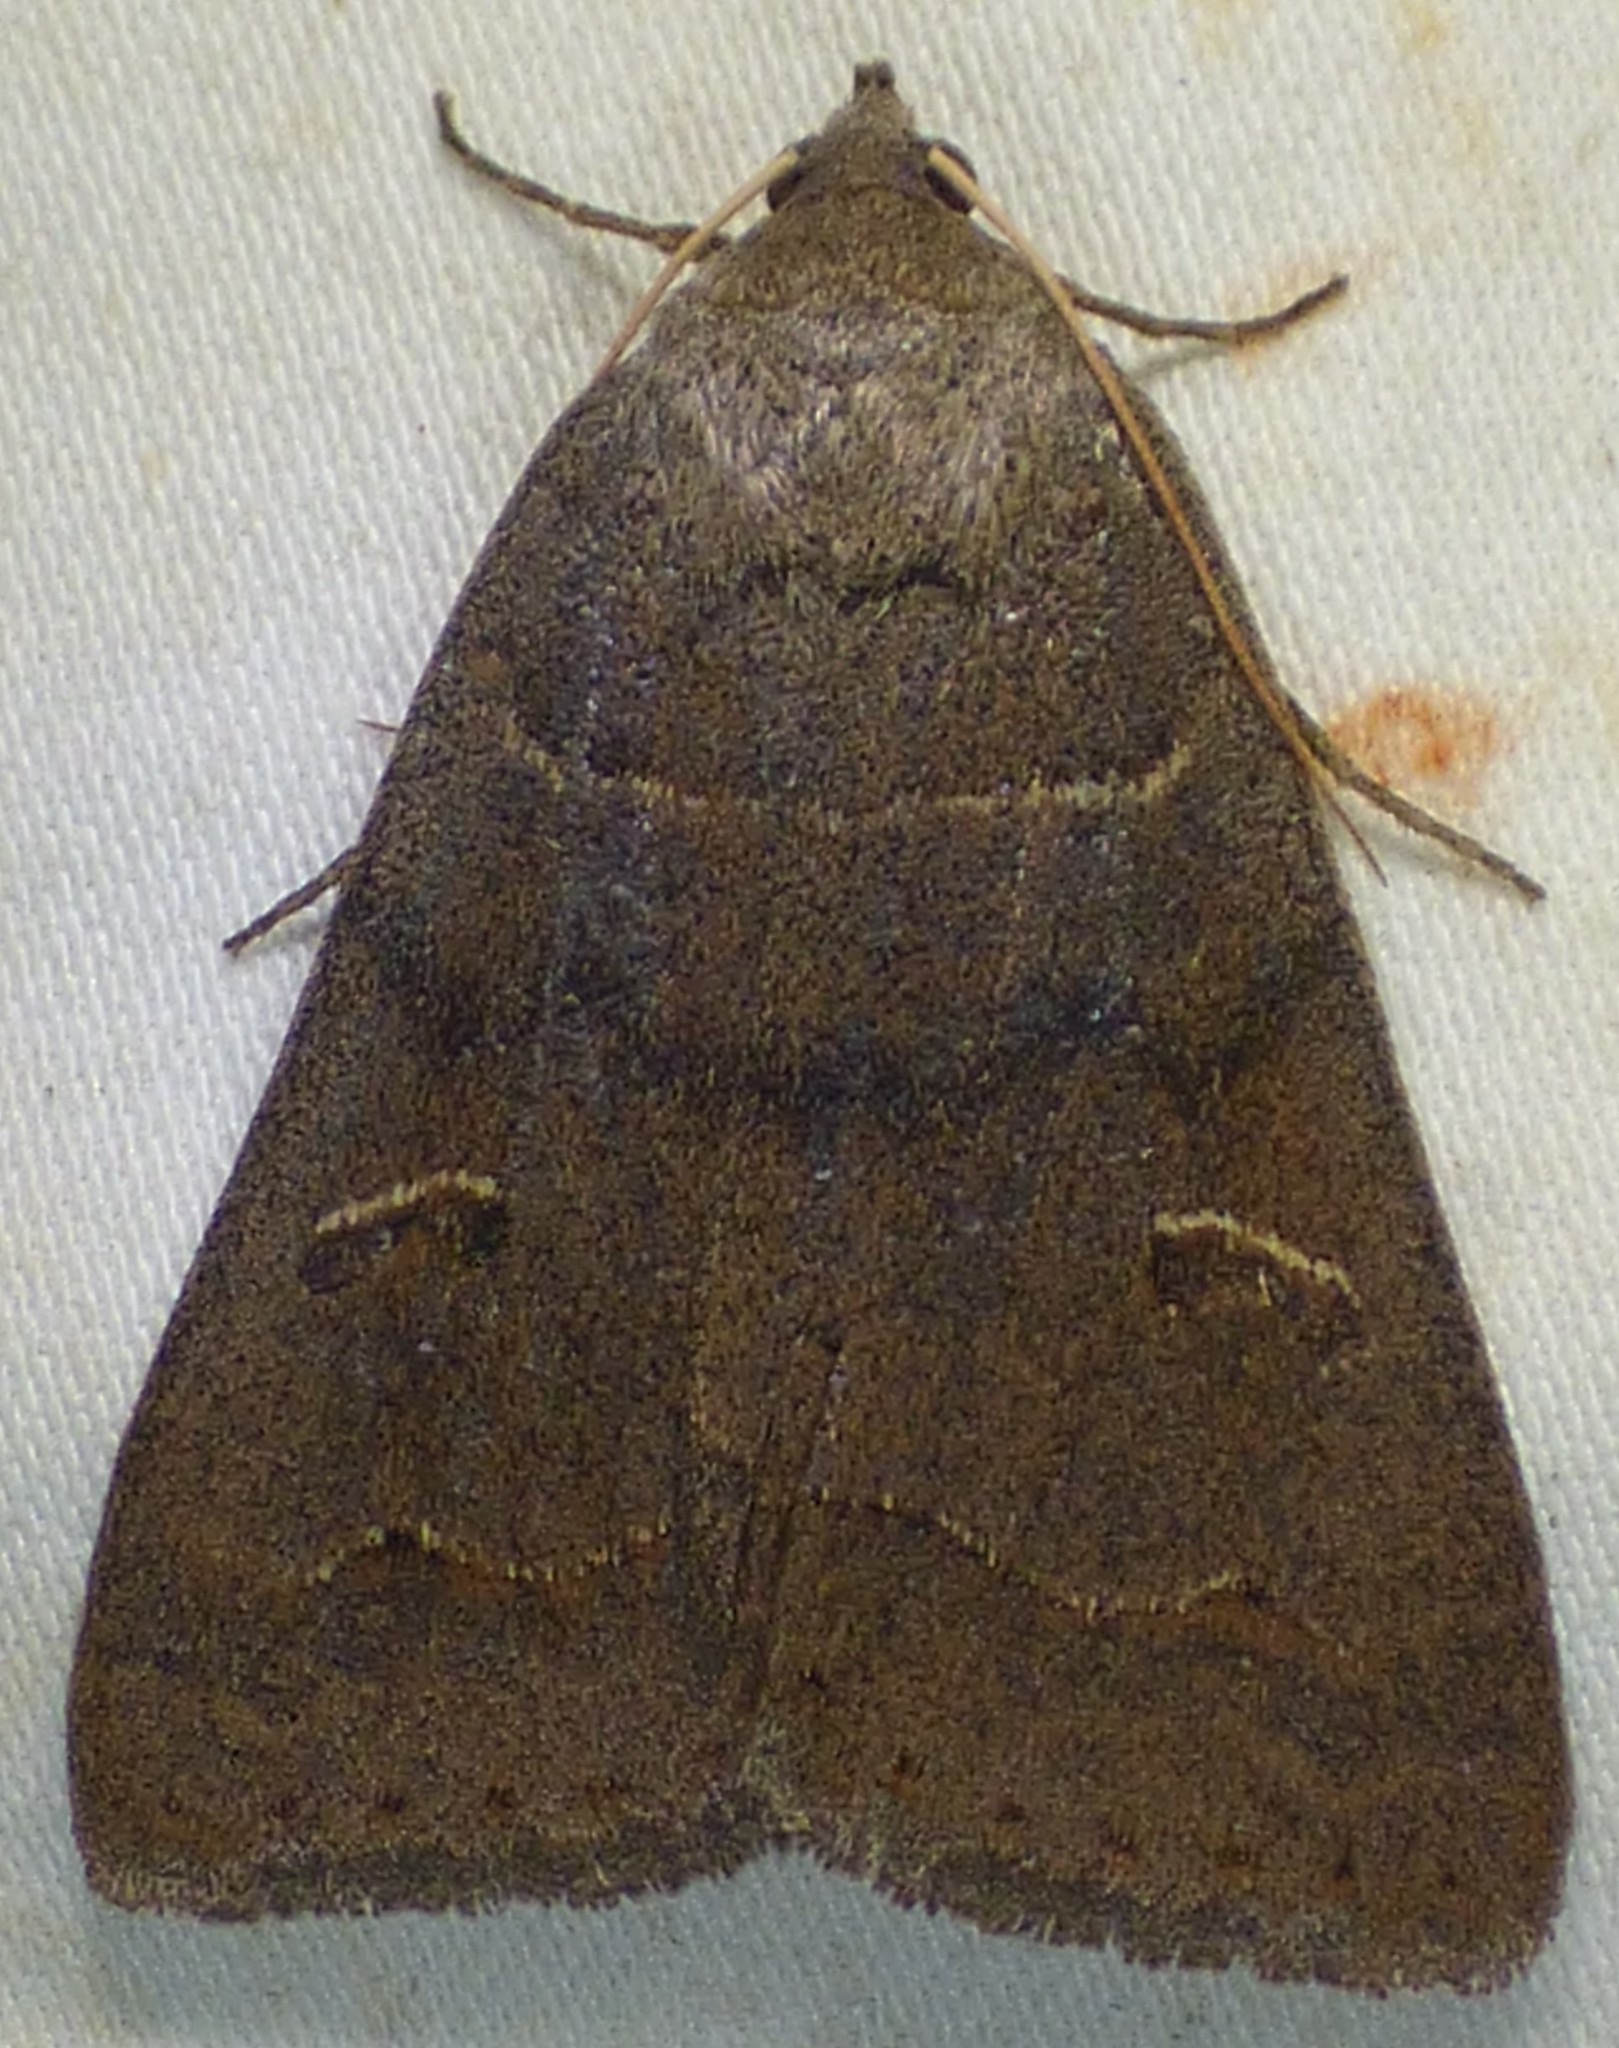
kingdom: Animalia
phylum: Arthropoda
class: Insecta
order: Lepidoptera
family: Erebidae
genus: Phoberia
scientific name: Phoberia atomaris
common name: Common oak moth
